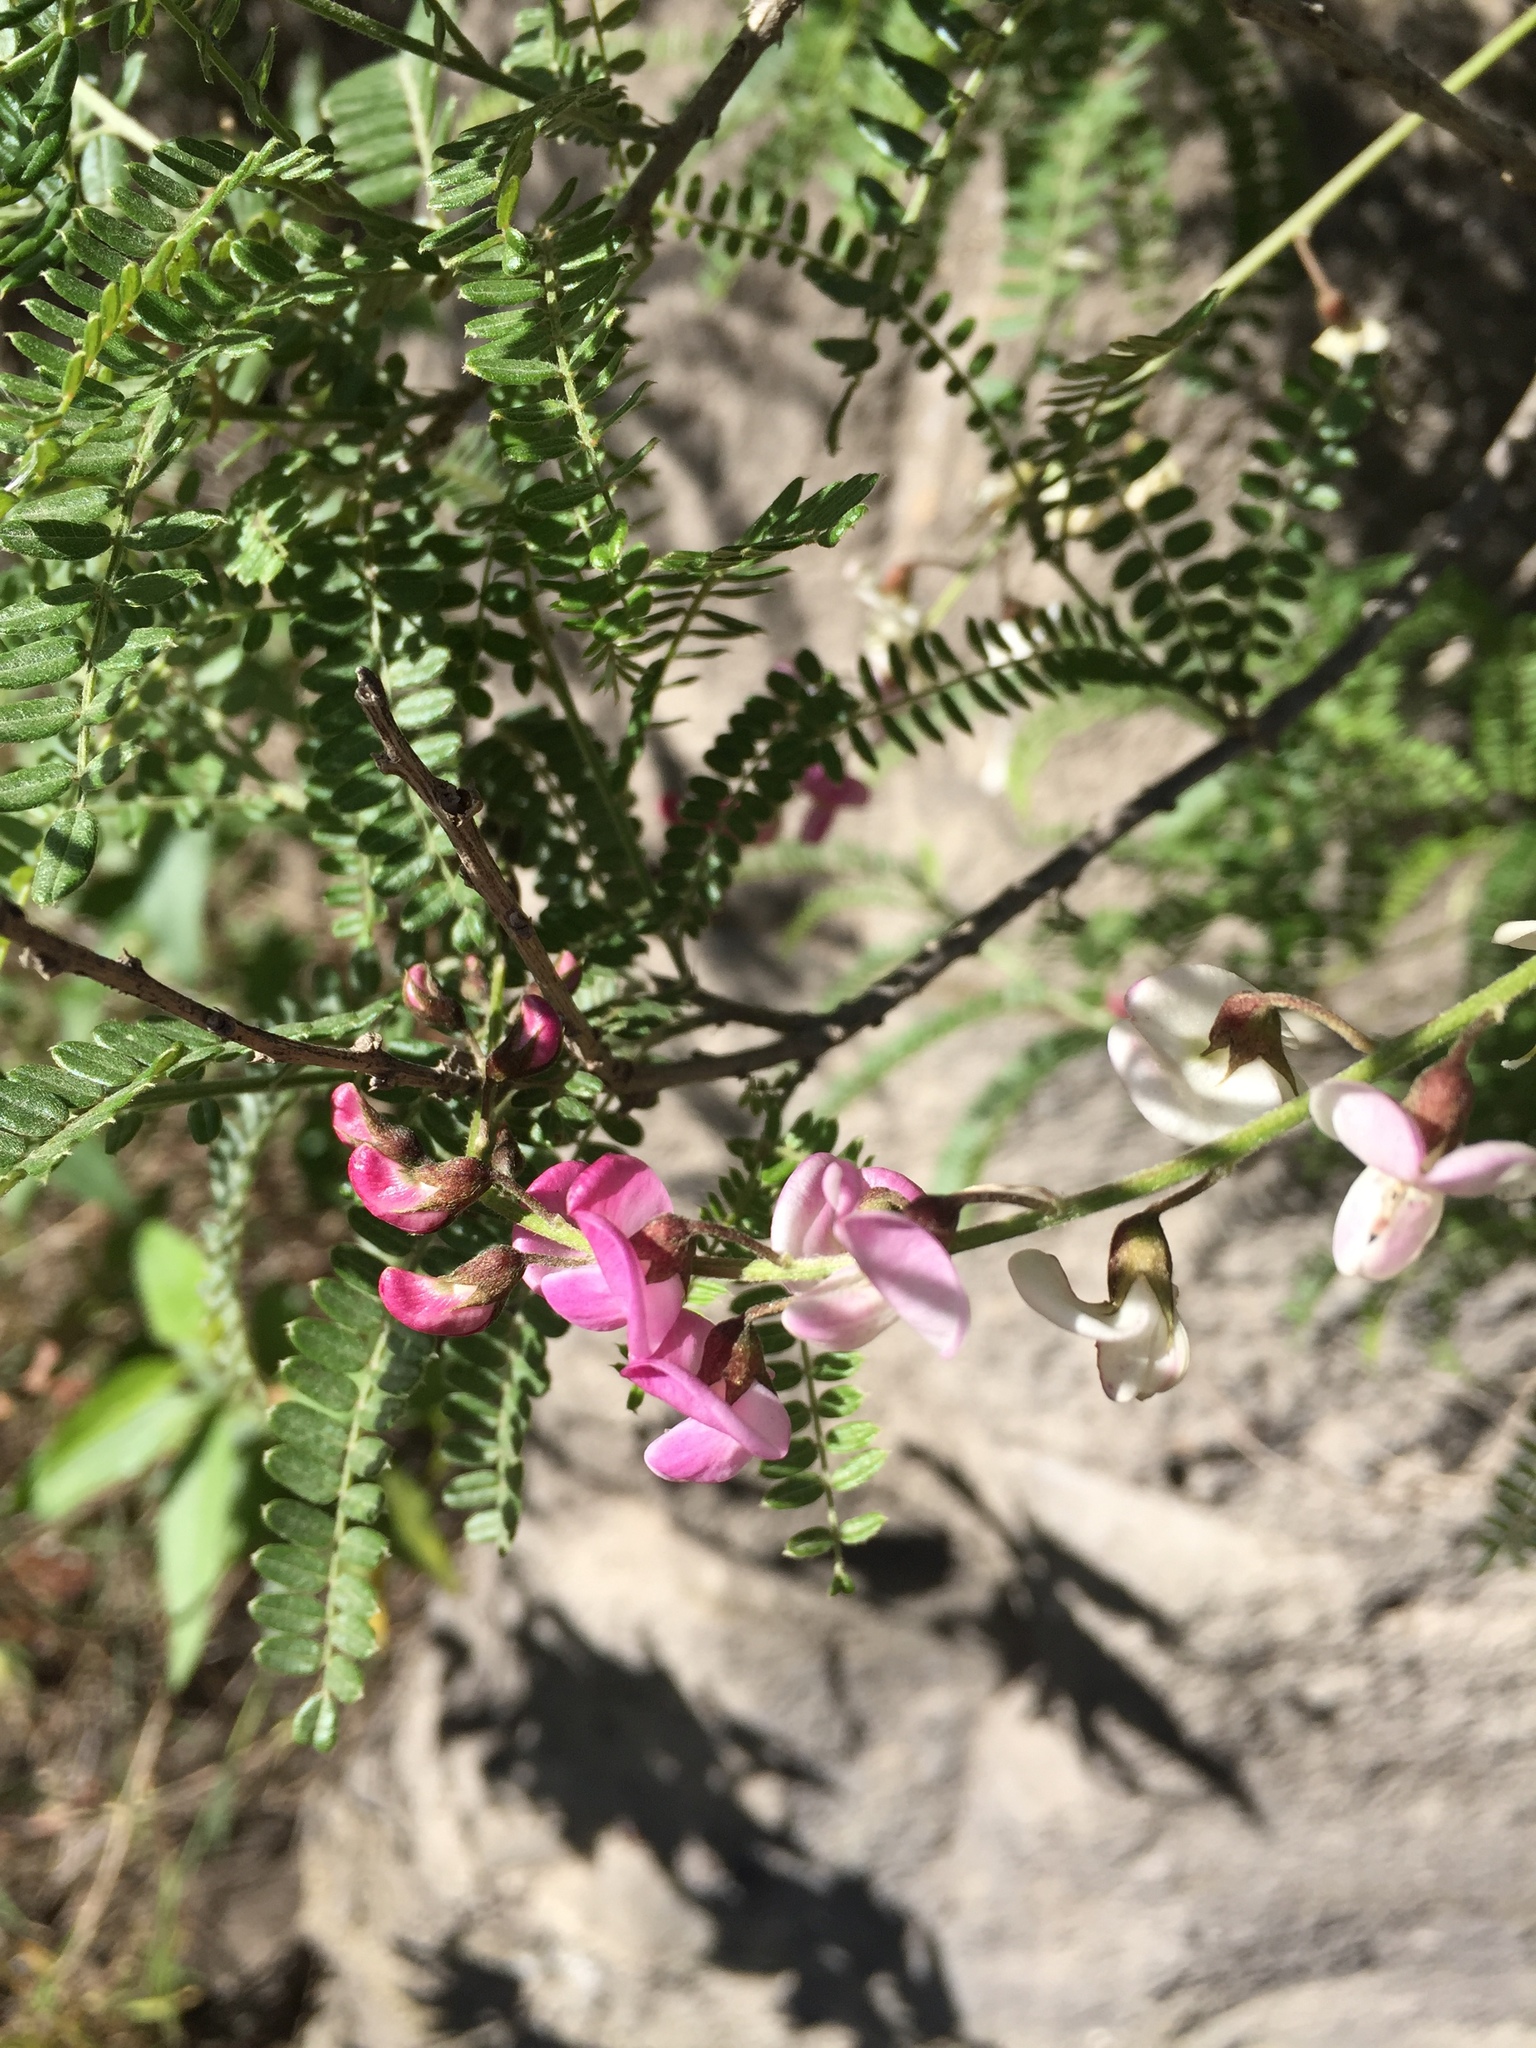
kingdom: Plantae
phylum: Tracheophyta
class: Magnoliopsida
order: Fabales
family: Fabaceae
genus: Coursetia
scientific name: Coursetia dubia
